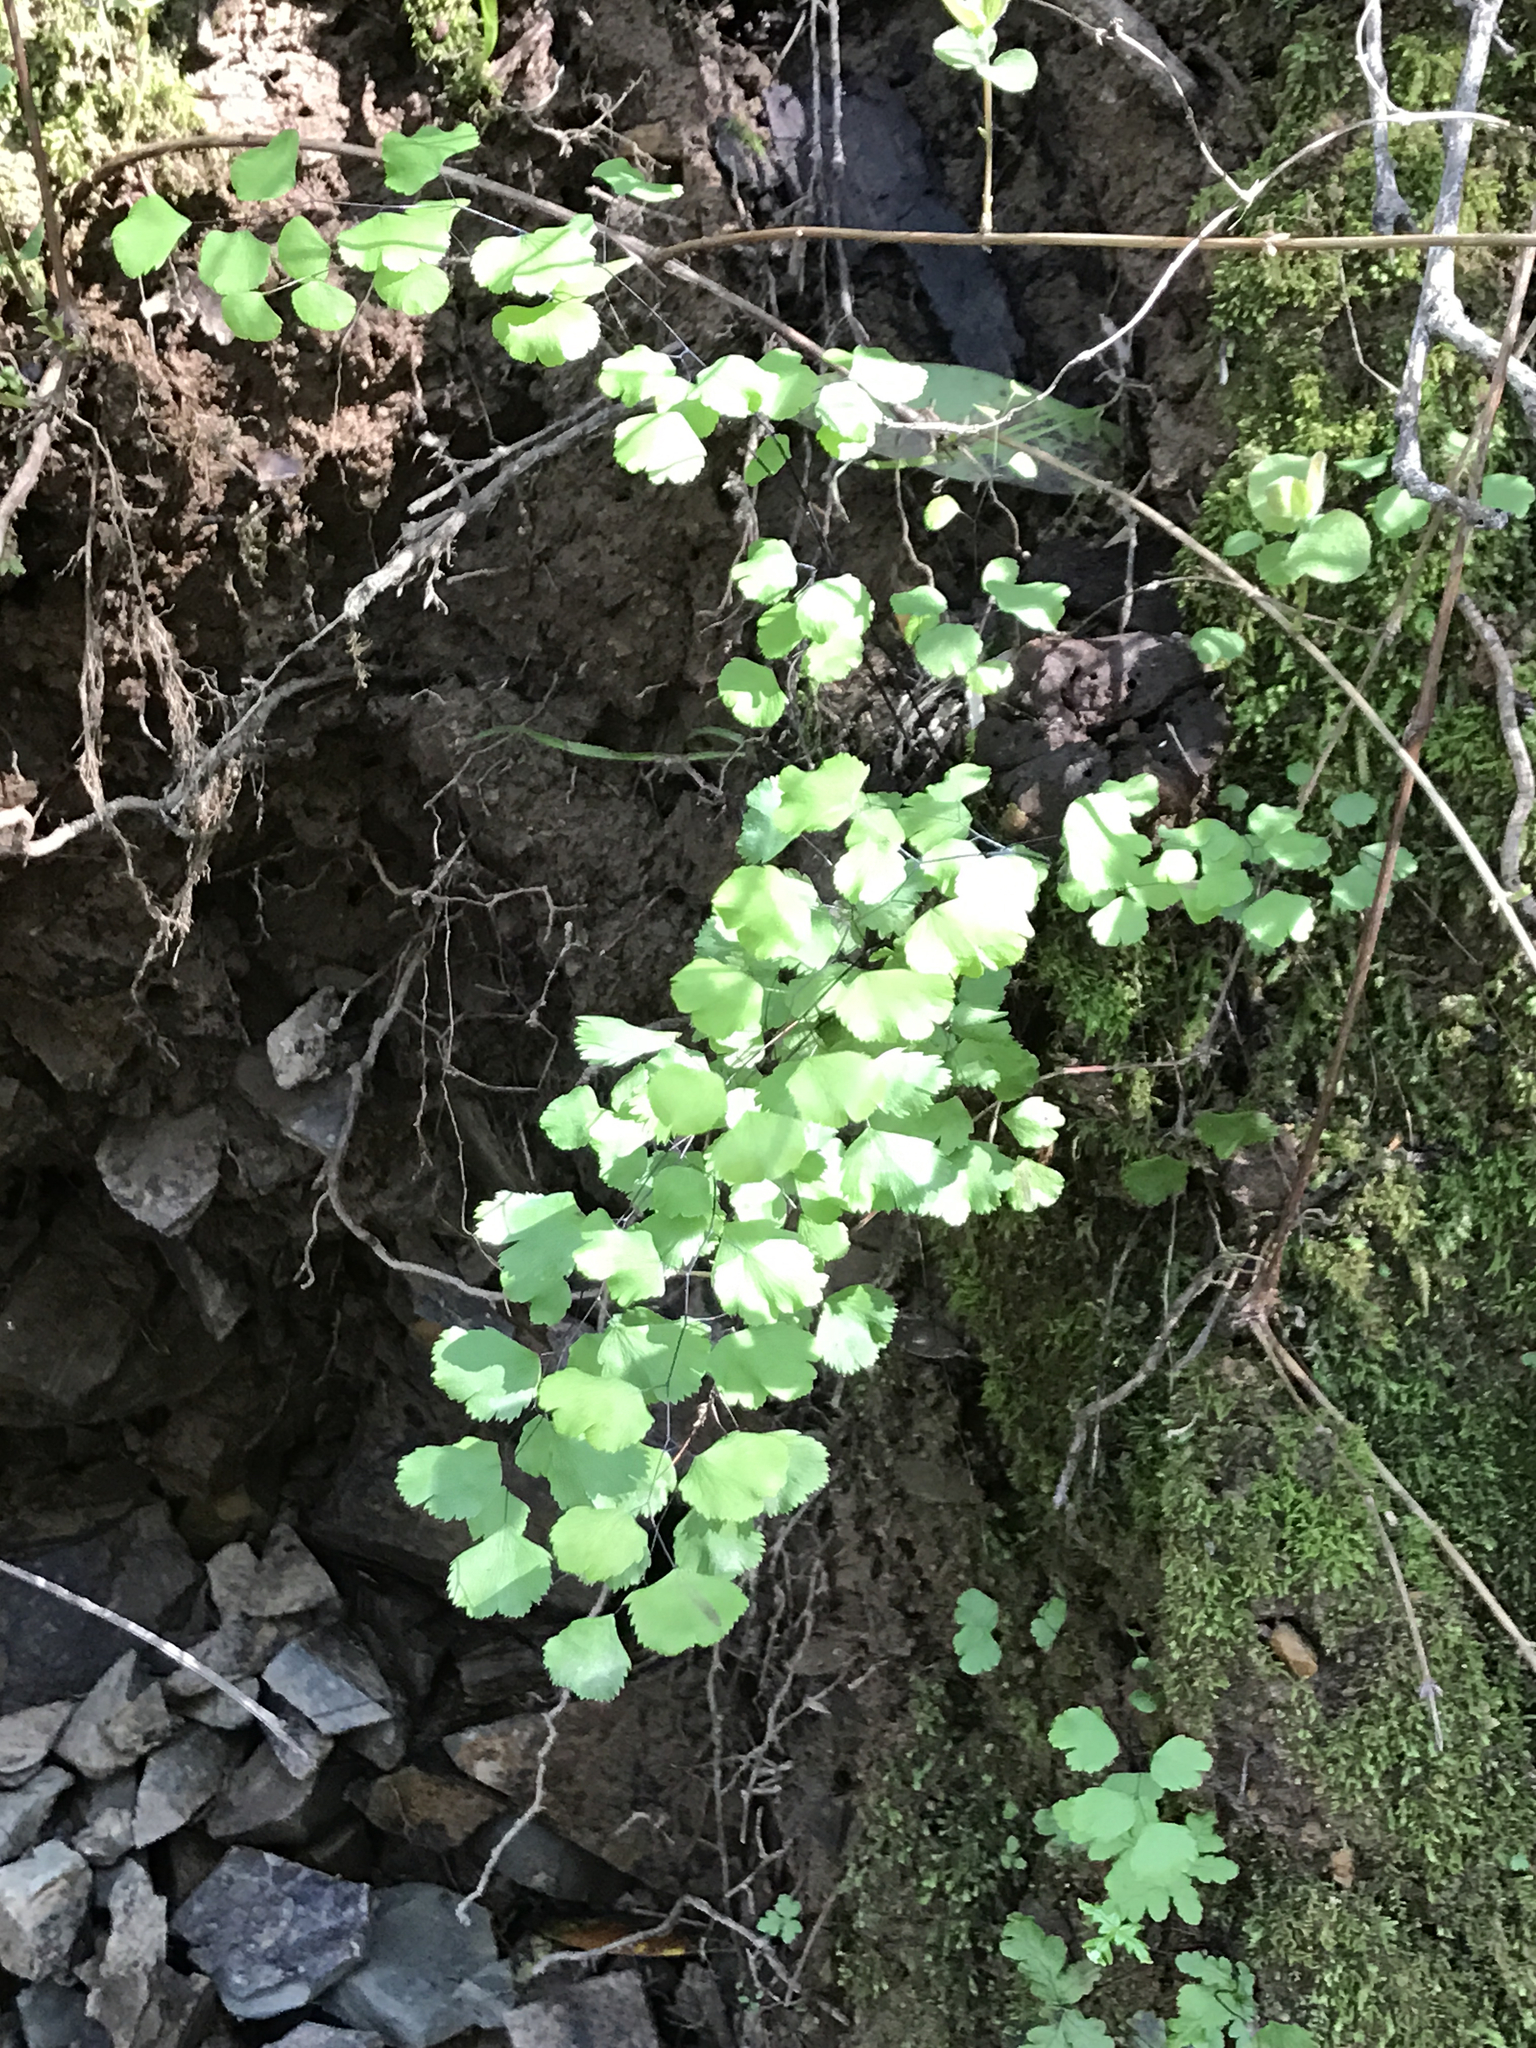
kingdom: Plantae
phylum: Tracheophyta
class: Polypodiopsida
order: Polypodiales
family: Pteridaceae
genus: Adiantum
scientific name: Adiantum jordanii
